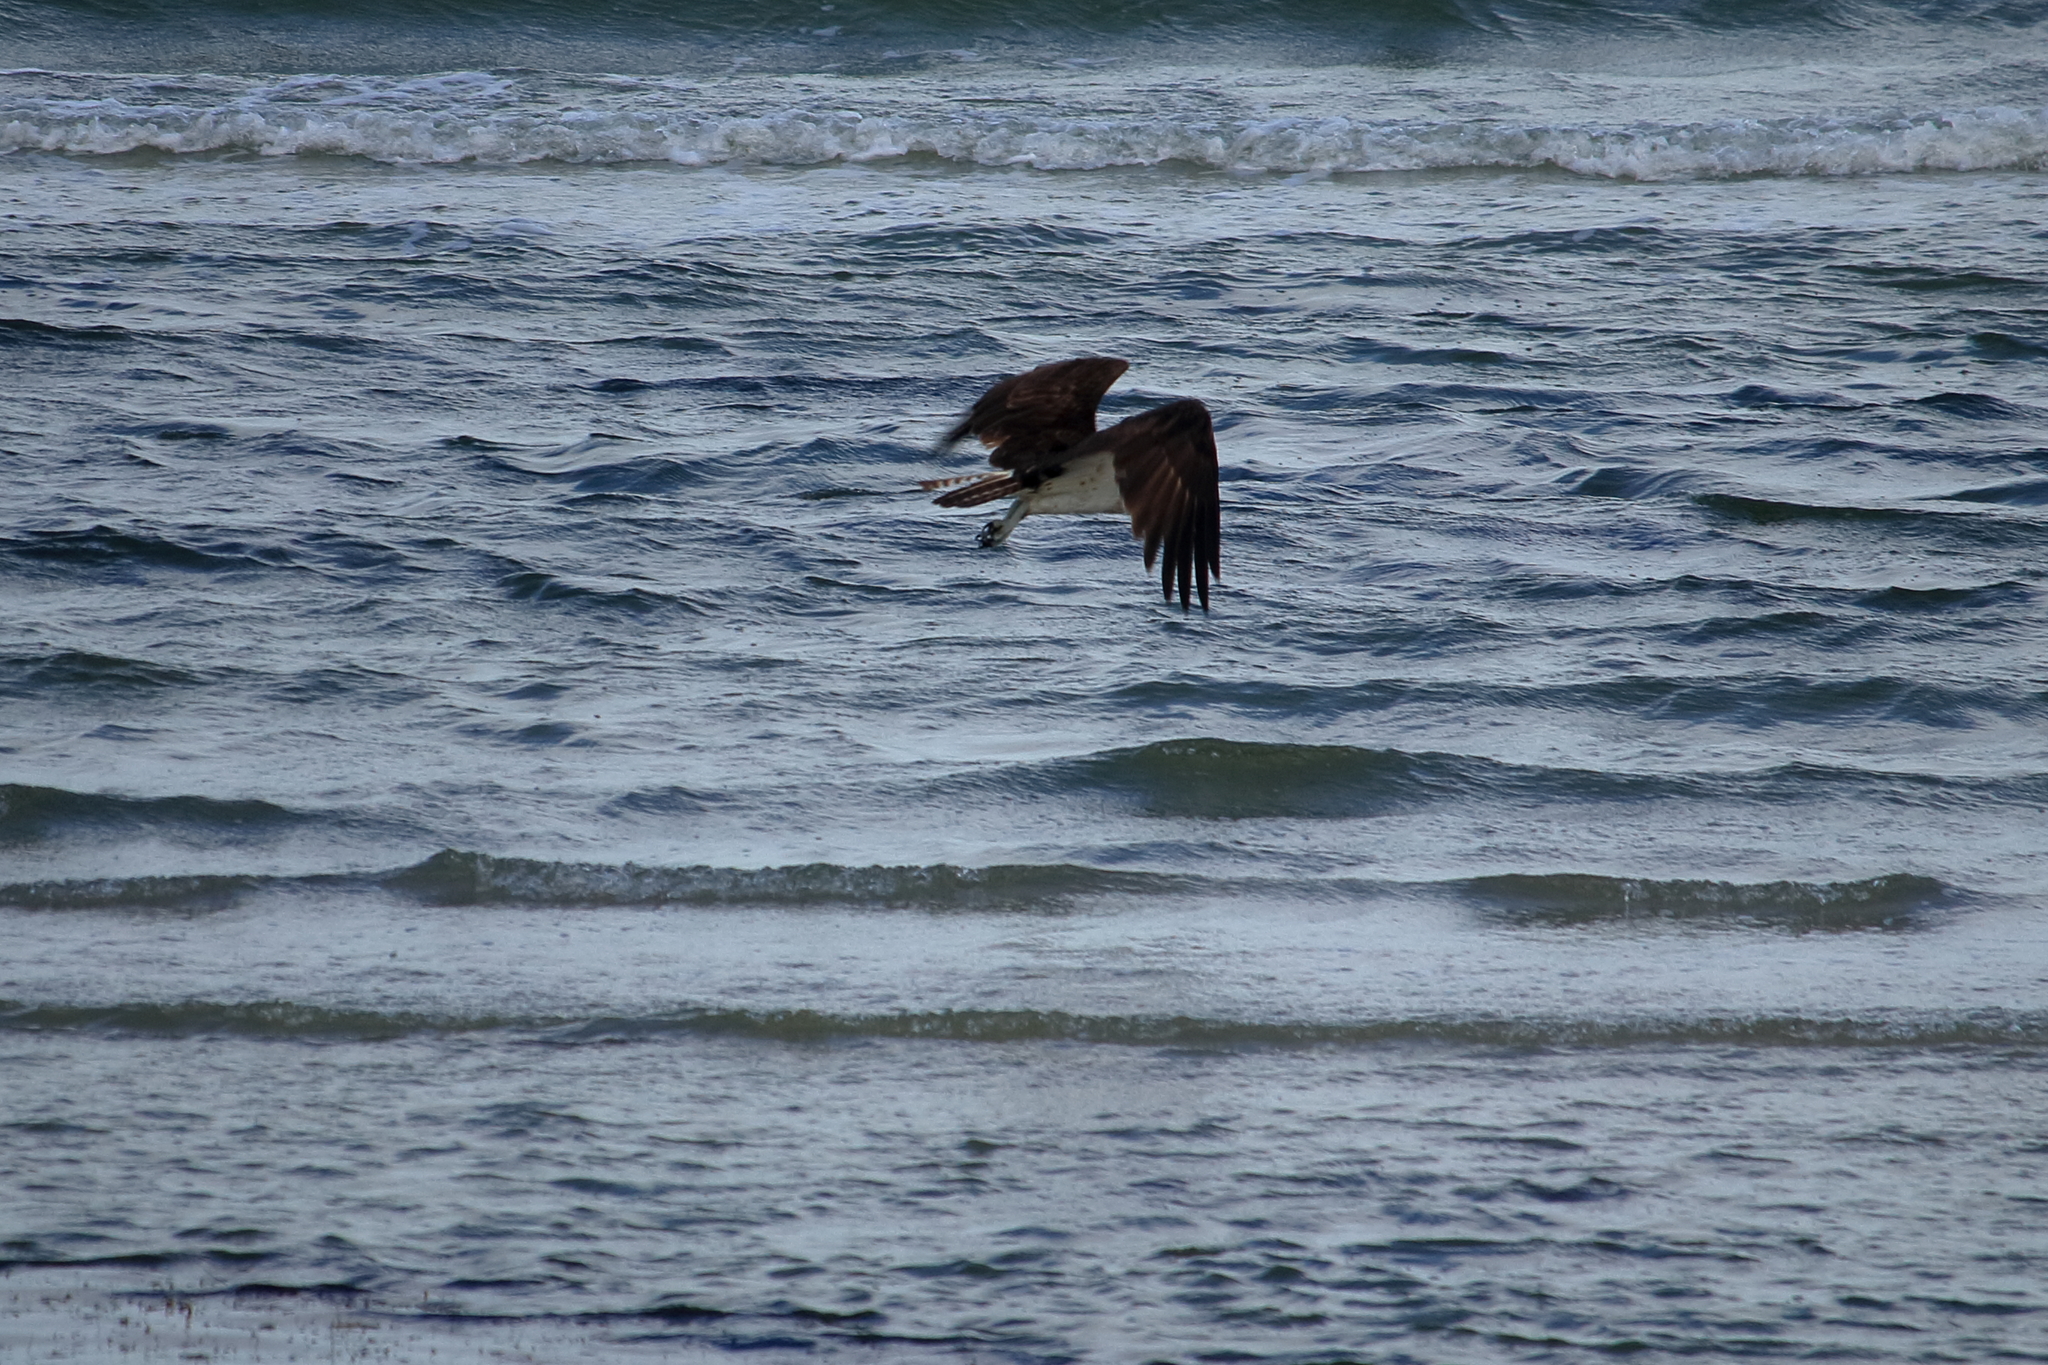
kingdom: Animalia
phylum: Chordata
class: Aves
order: Accipitriformes
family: Pandionidae
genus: Pandion
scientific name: Pandion haliaetus
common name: Osprey
